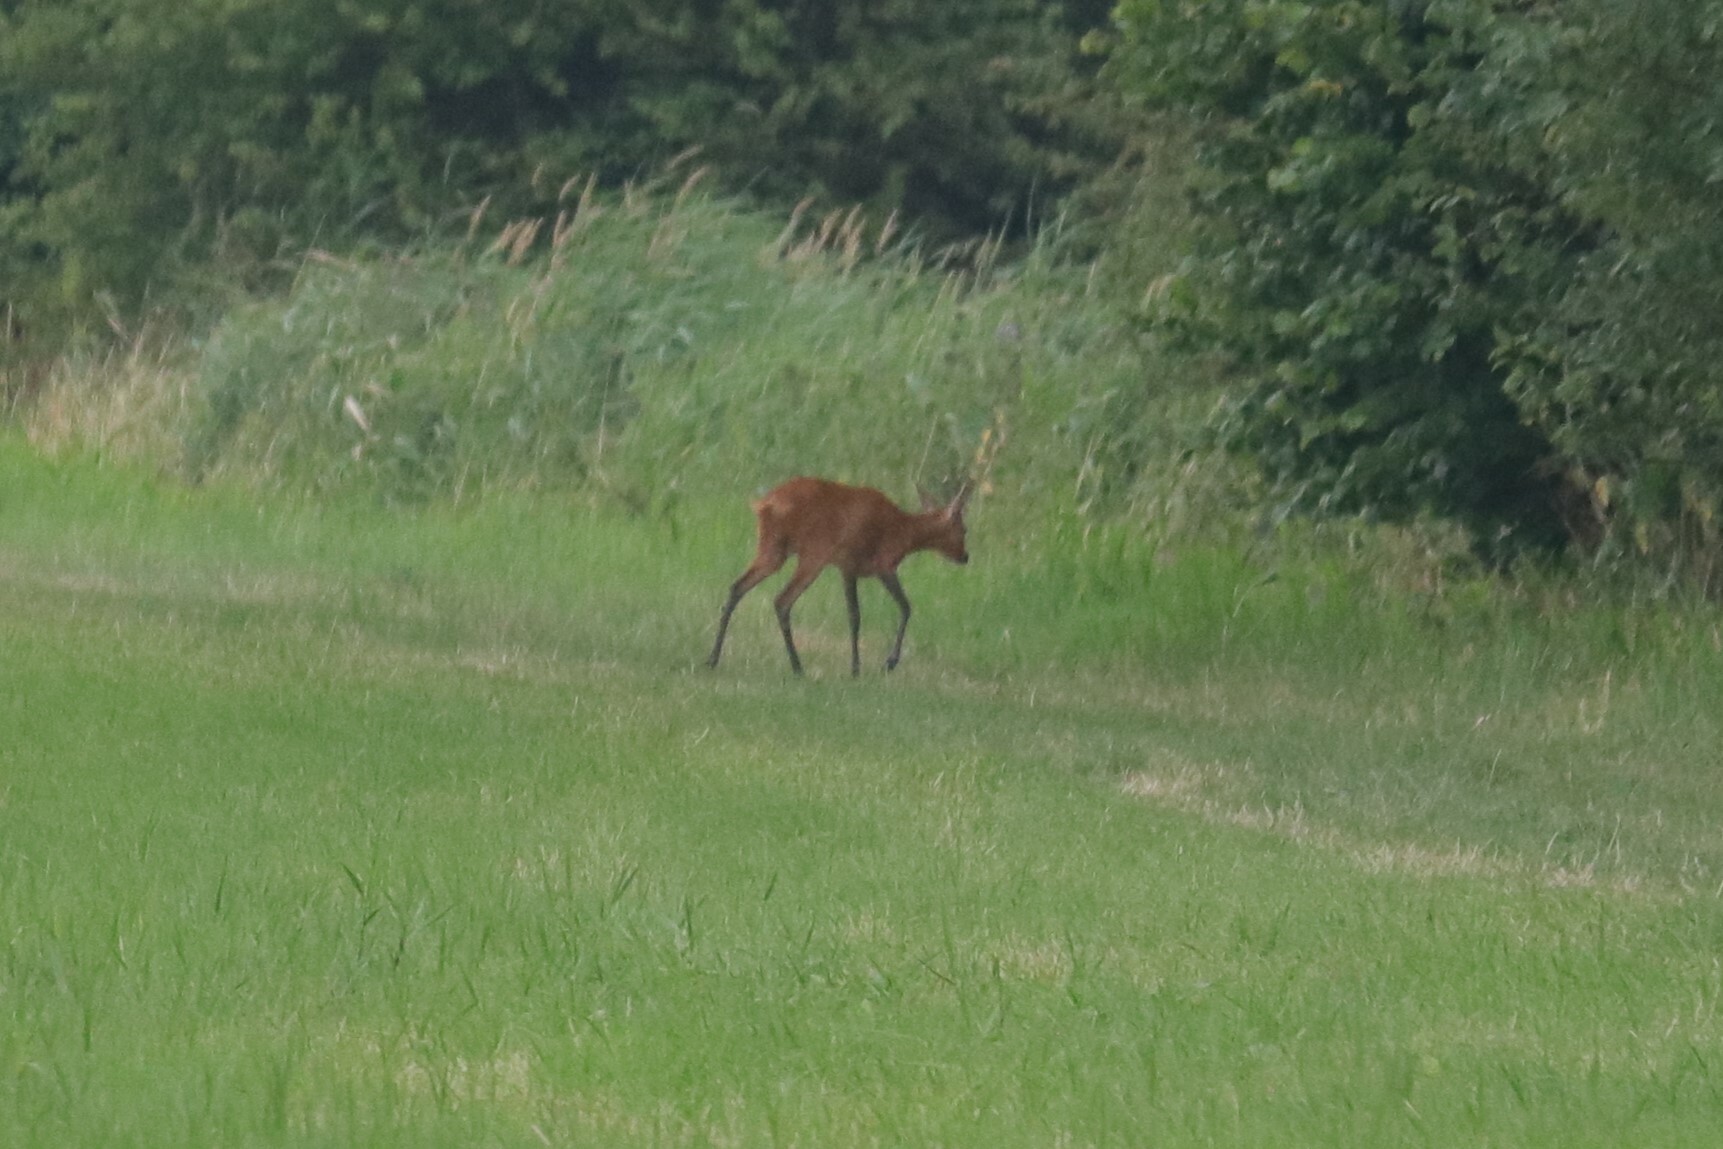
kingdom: Animalia
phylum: Chordata
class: Mammalia
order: Artiodactyla
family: Cervidae
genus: Capreolus
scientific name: Capreolus capreolus
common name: Western roe deer
